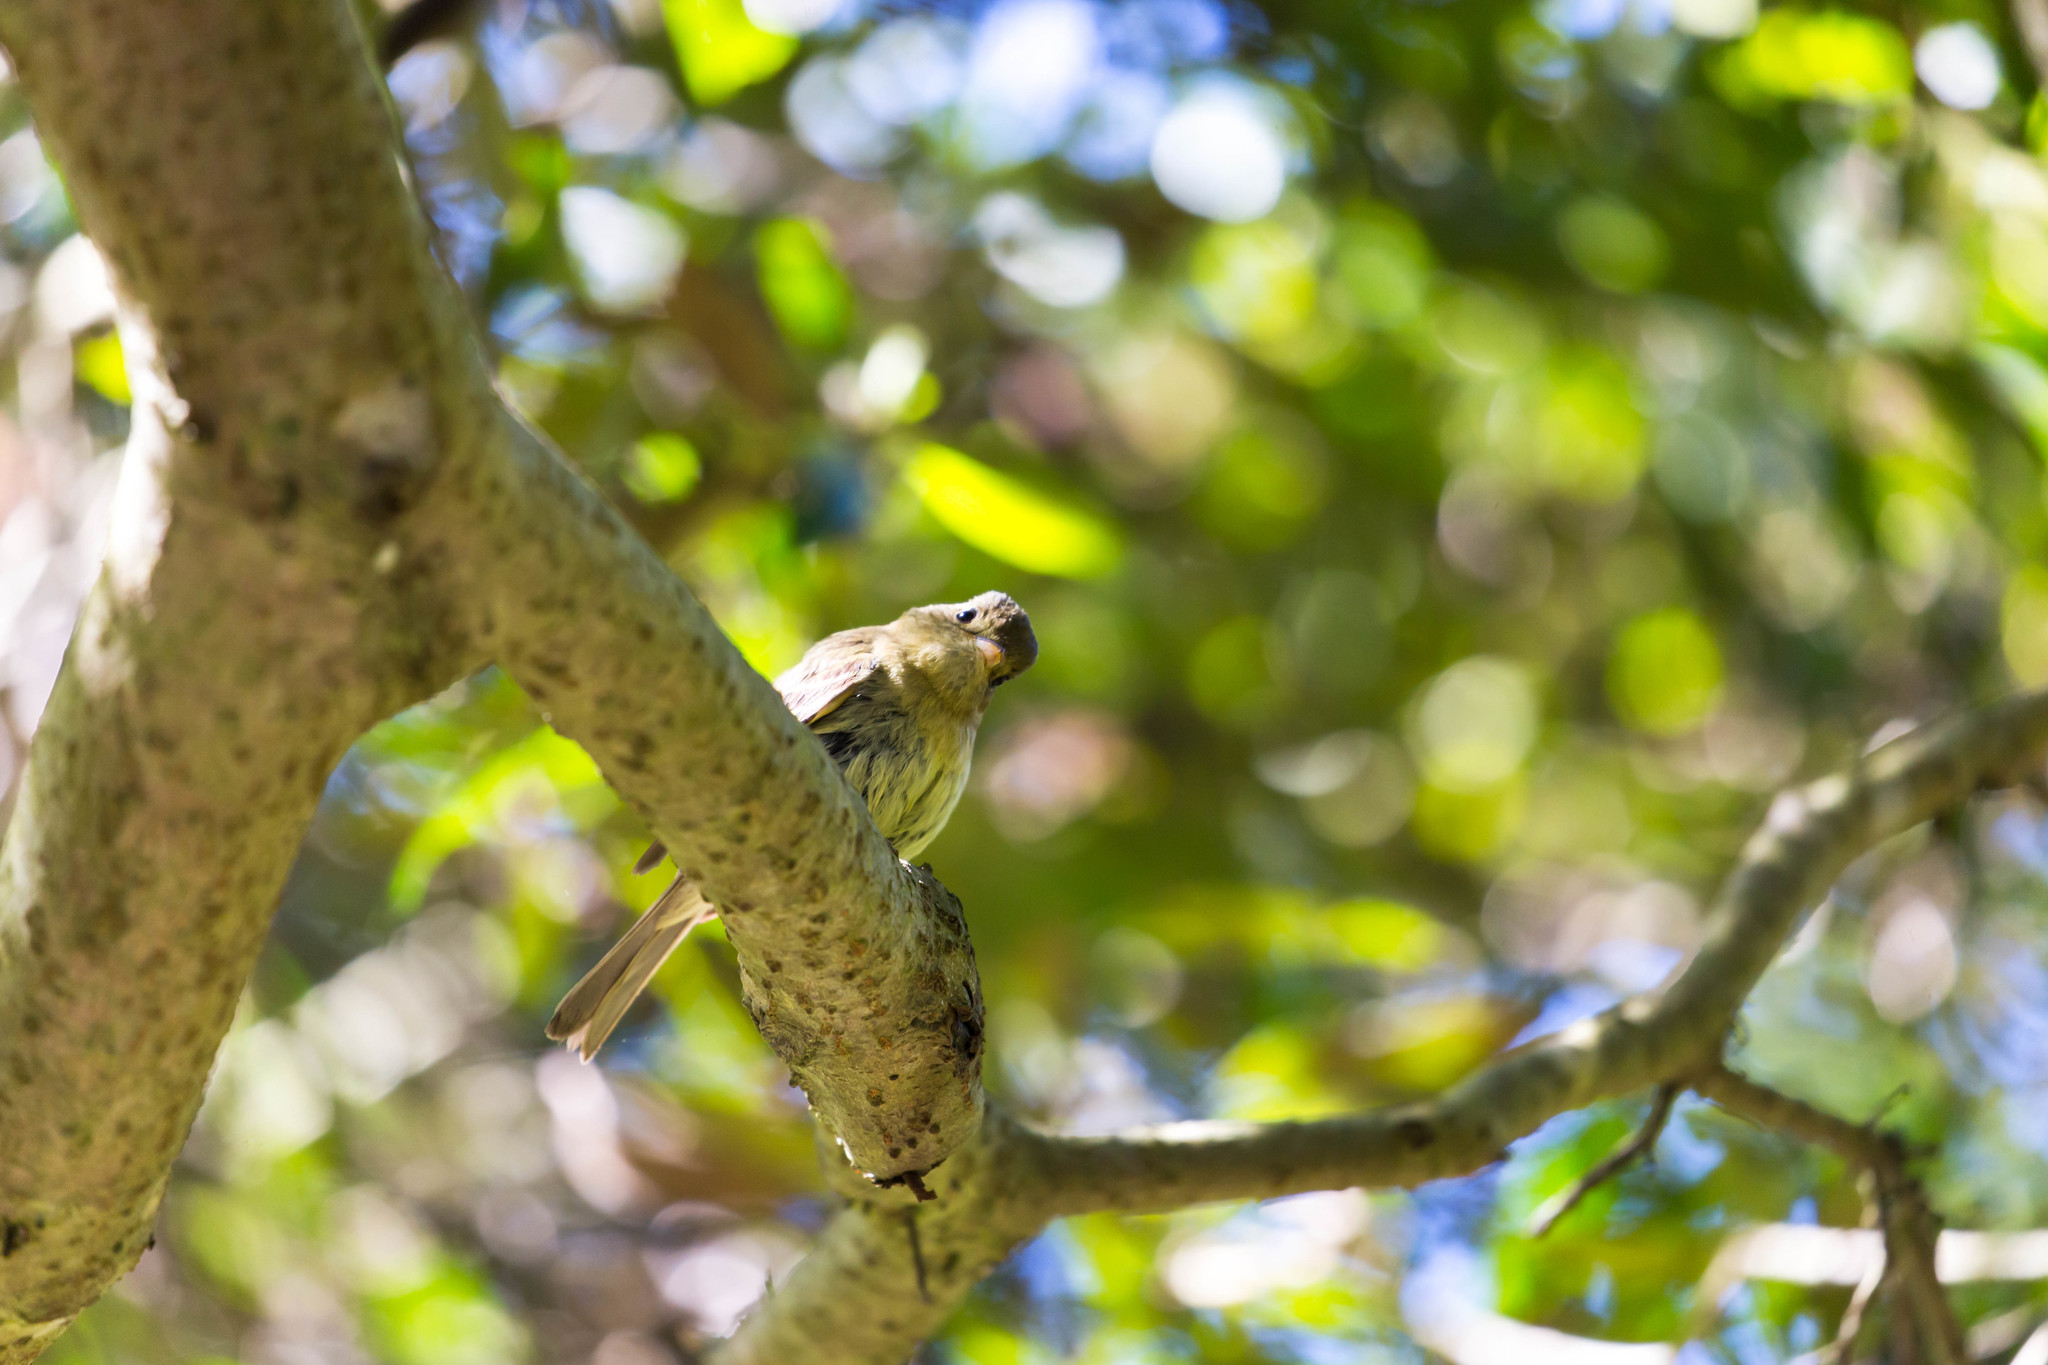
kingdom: Animalia
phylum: Chordata
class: Aves
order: Passeriformes
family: Tyrannidae
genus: Empidonax
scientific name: Empidonax difficilis
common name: Pacific-slope flycatcher
